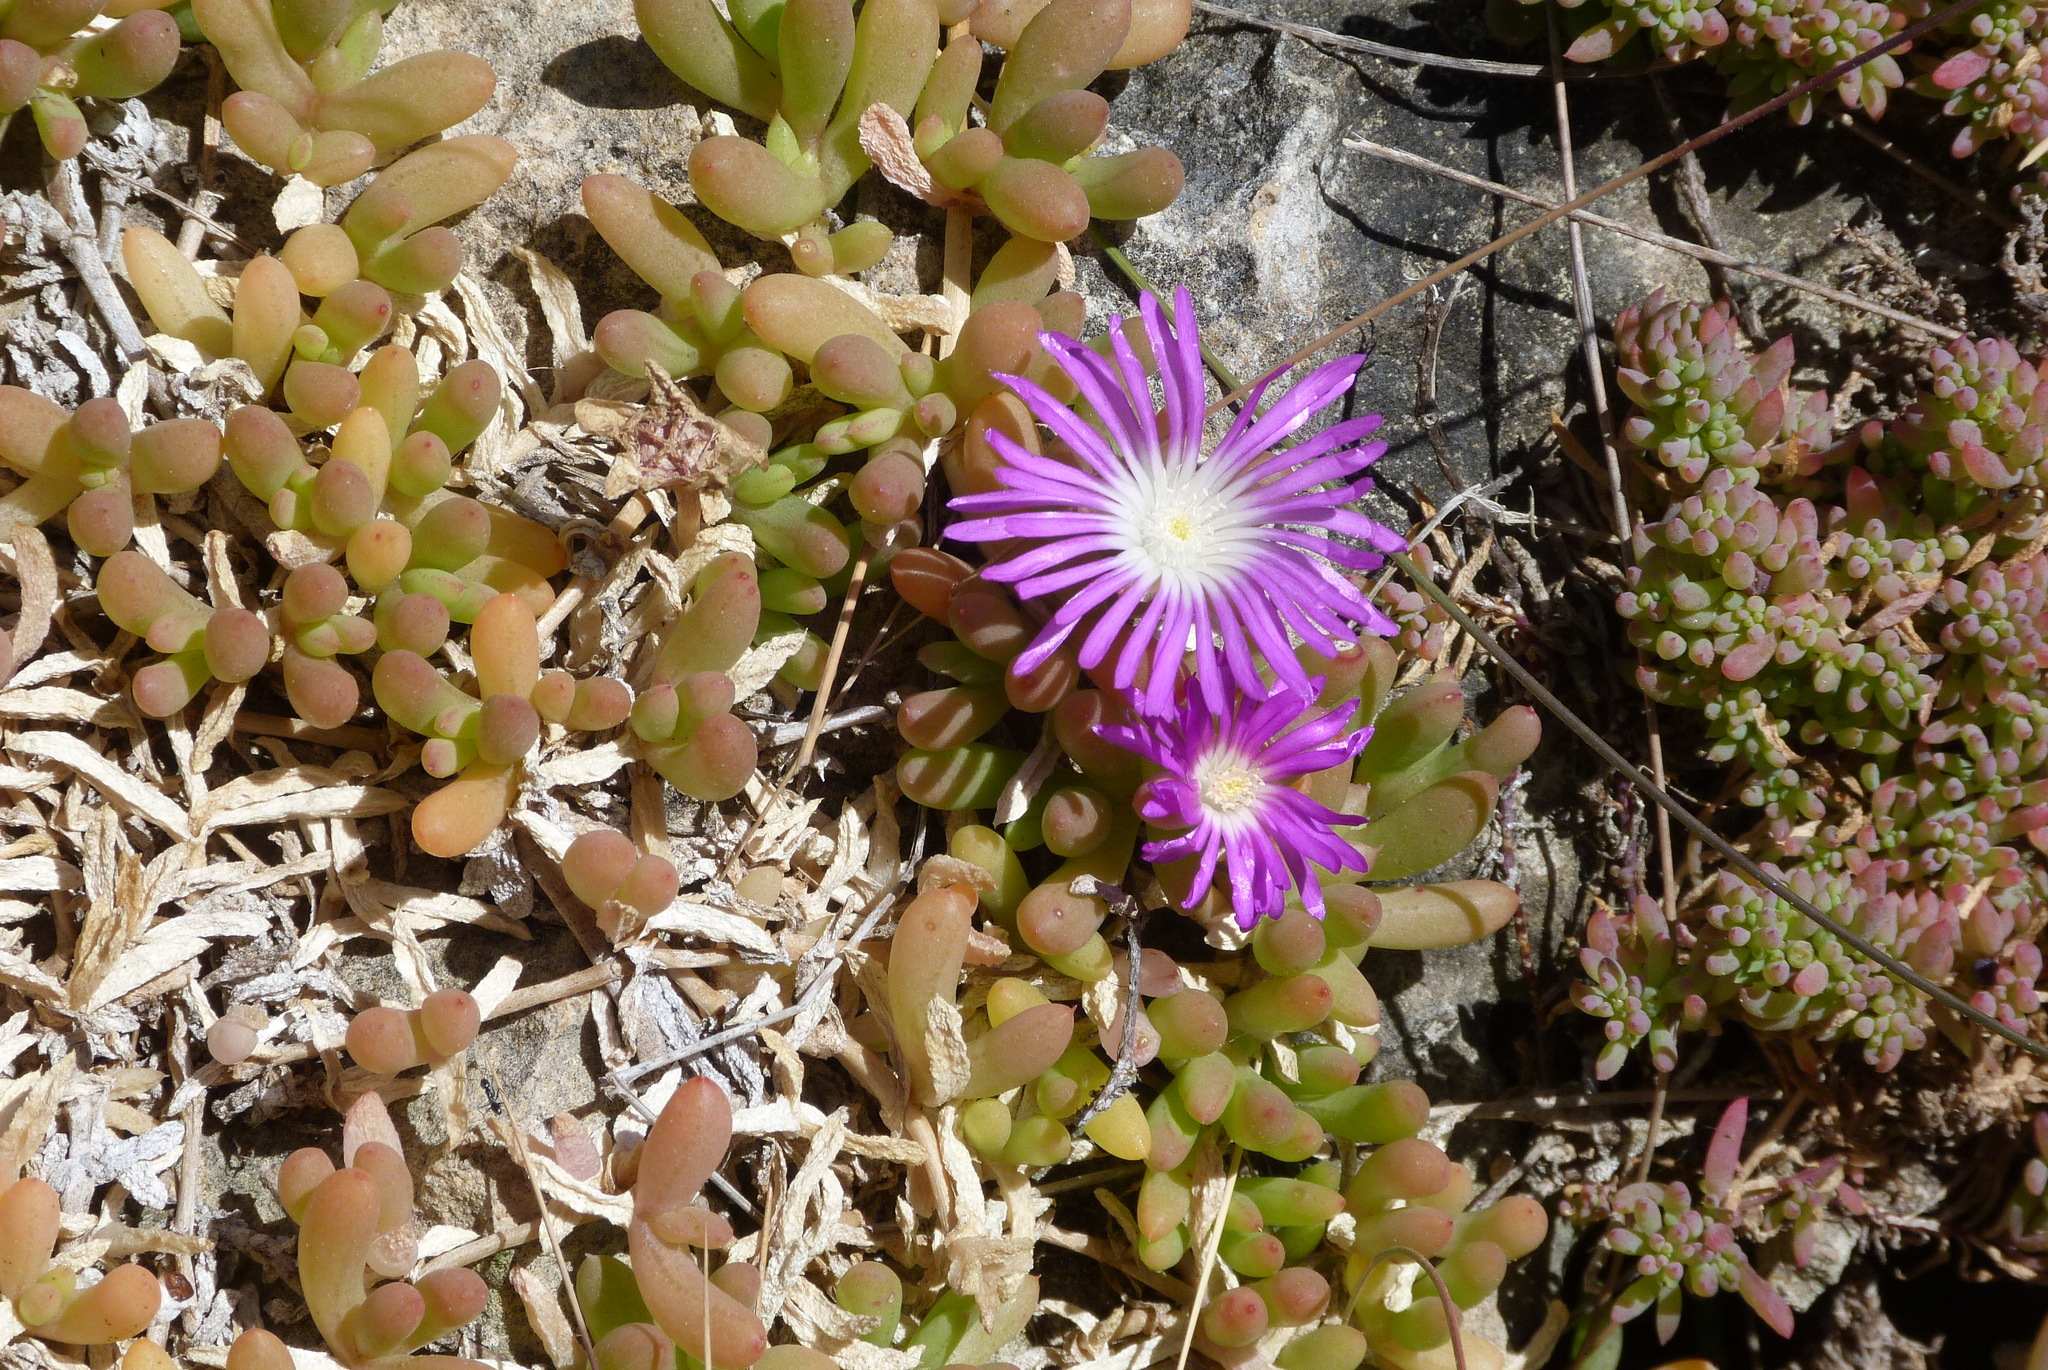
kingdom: Plantae
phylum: Tracheophyta
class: Magnoliopsida
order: Caryophyllales
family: Aizoaceae
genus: Disphyma
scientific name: Disphyma crassifolium
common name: Purple dewplant
